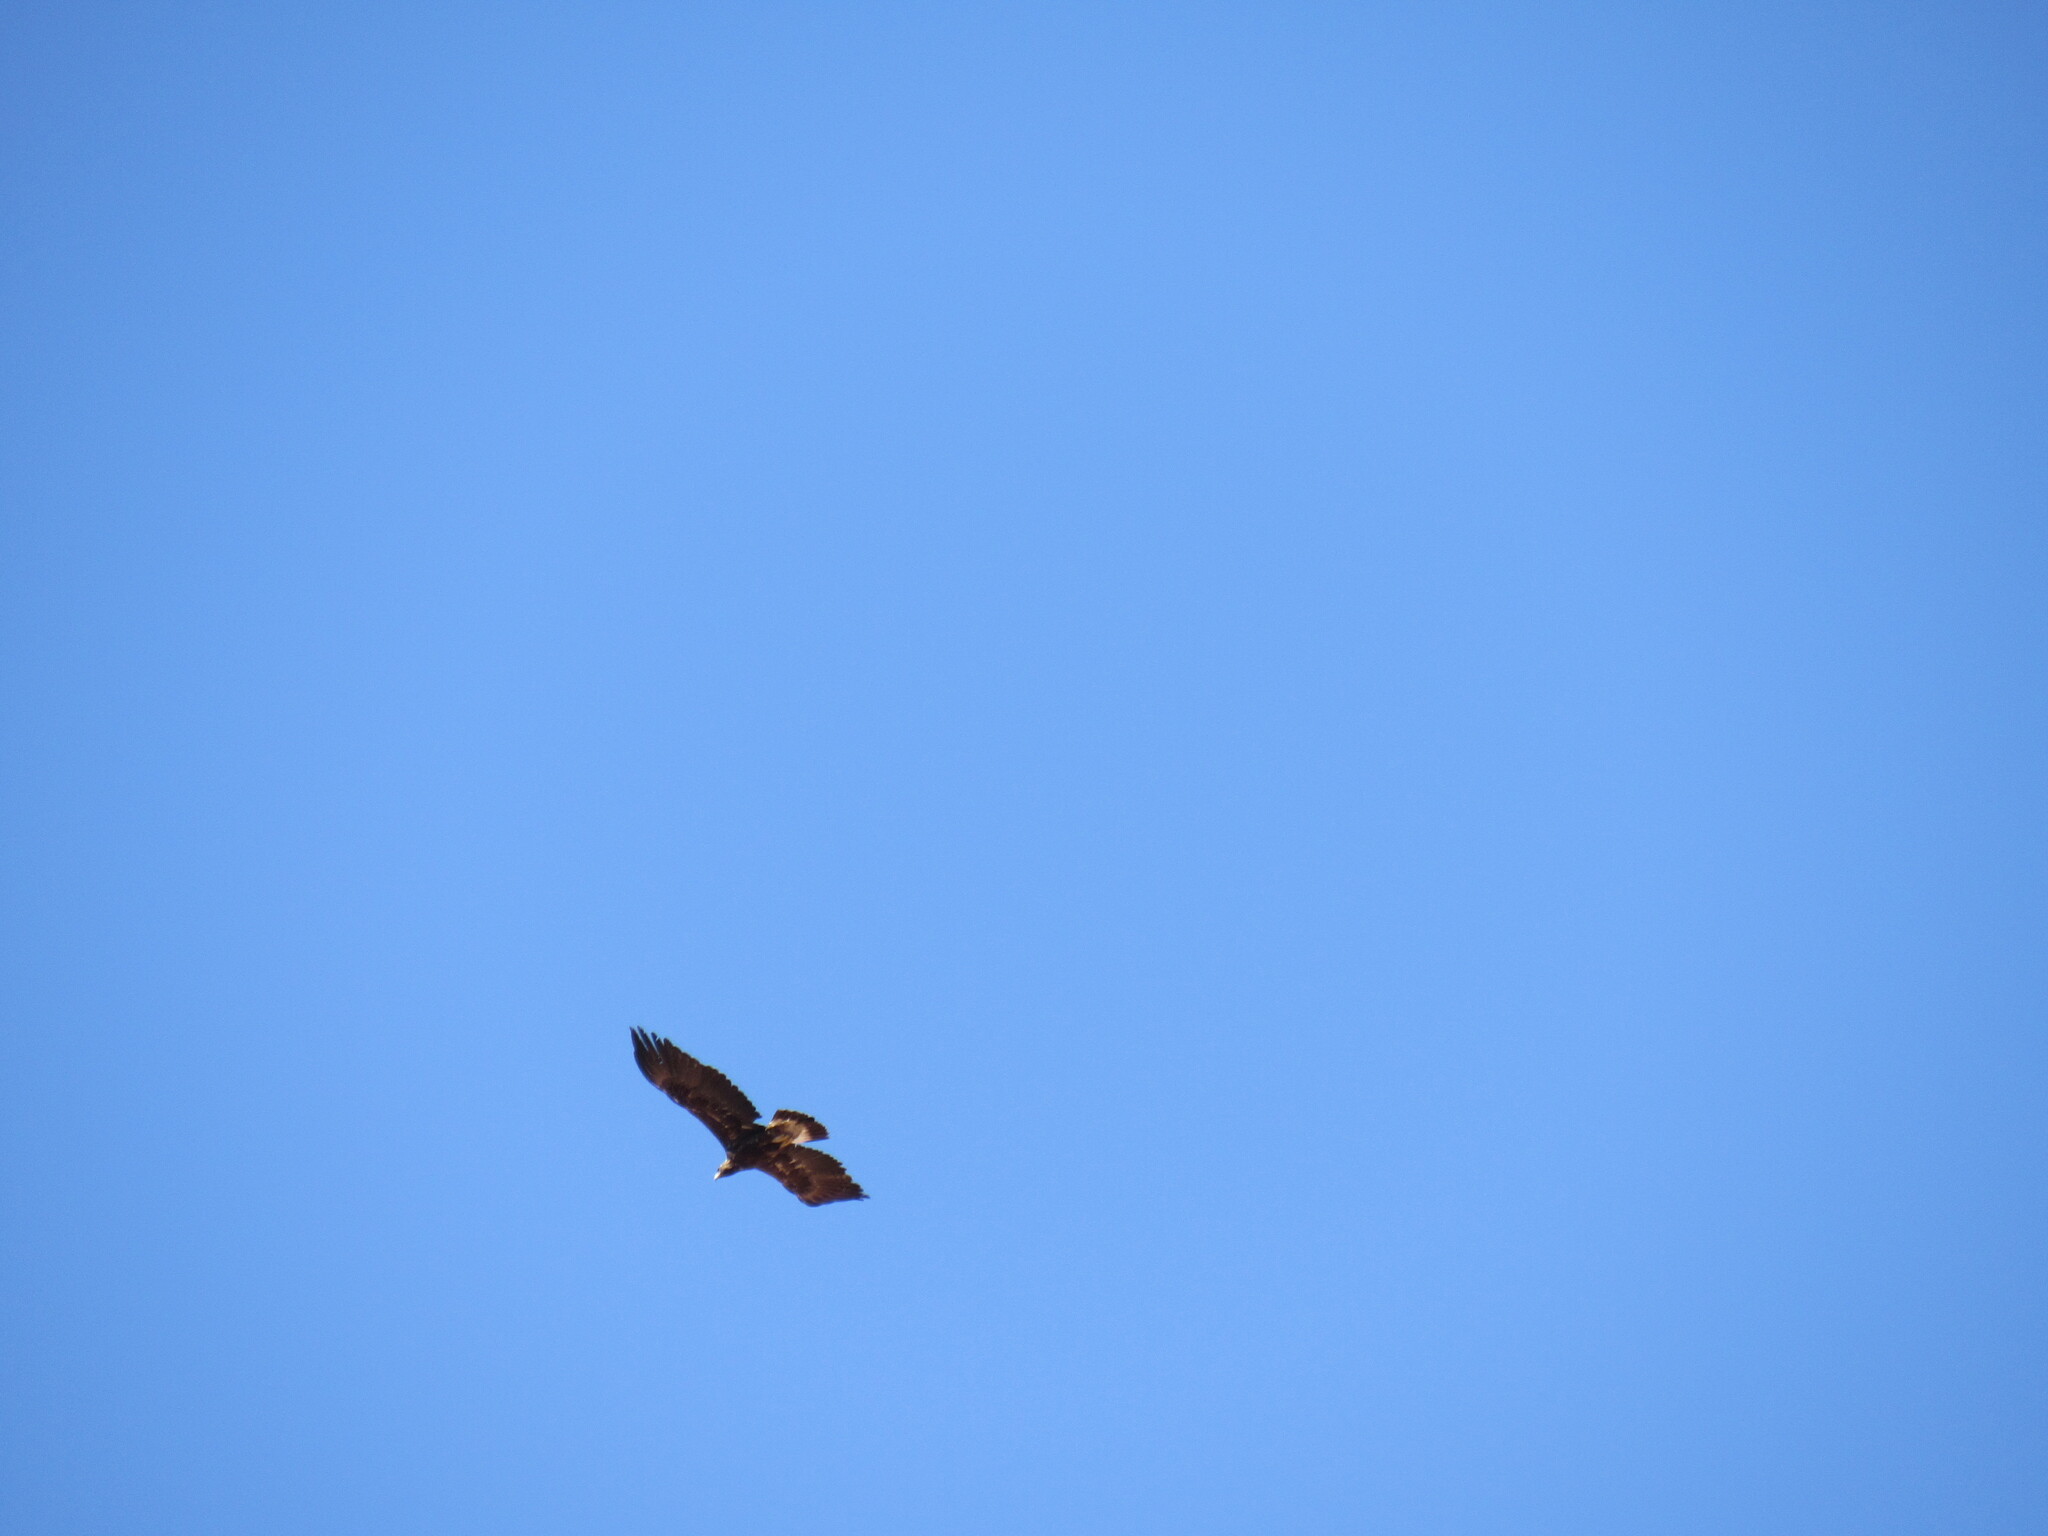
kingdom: Animalia
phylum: Chordata
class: Aves
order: Accipitriformes
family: Accipitridae
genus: Aquila
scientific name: Aquila chrysaetos
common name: Golden eagle
